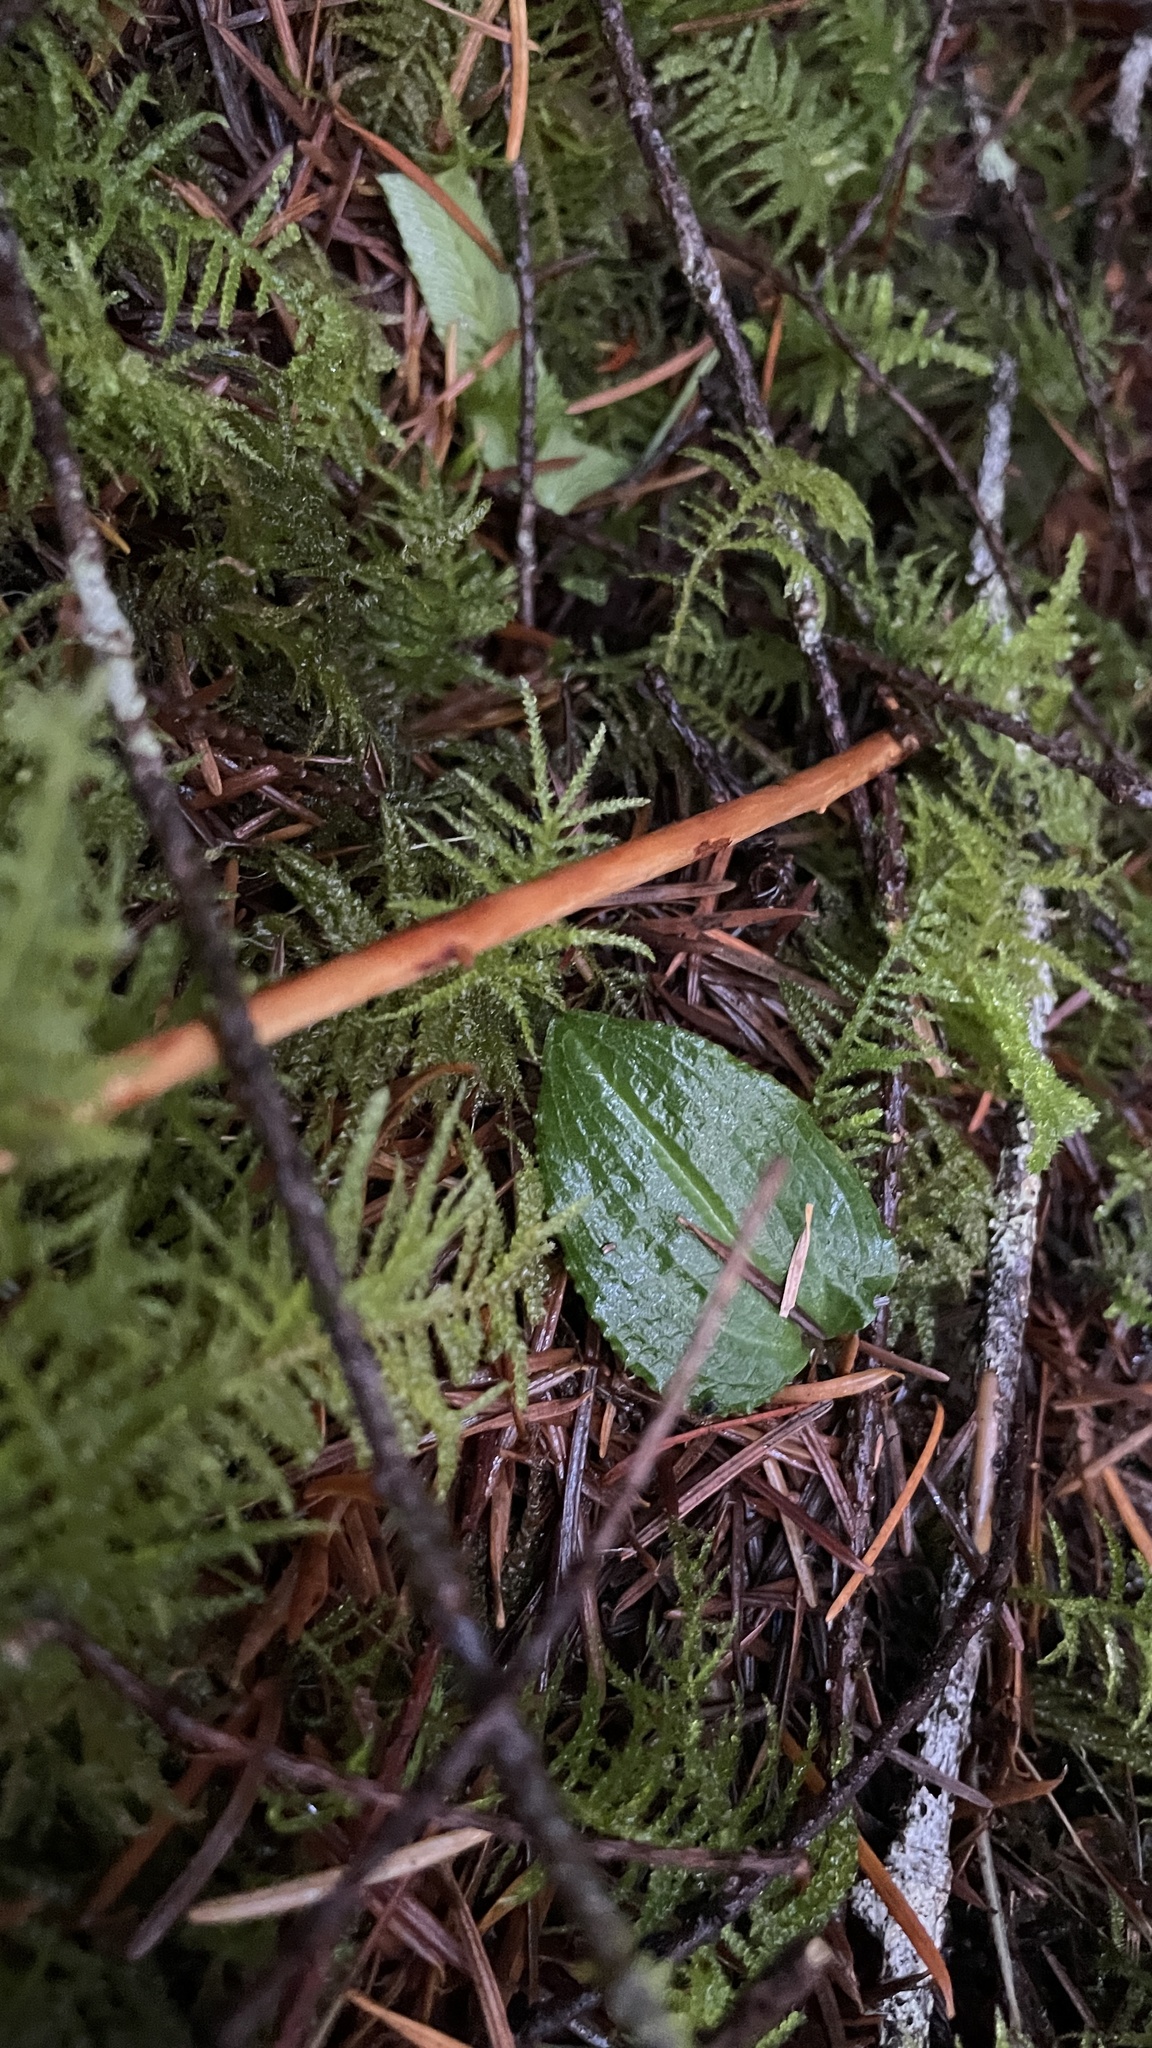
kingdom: Plantae
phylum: Tracheophyta
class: Liliopsida
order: Asparagales
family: Orchidaceae
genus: Calypso
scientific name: Calypso bulbosa
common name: Calypso
